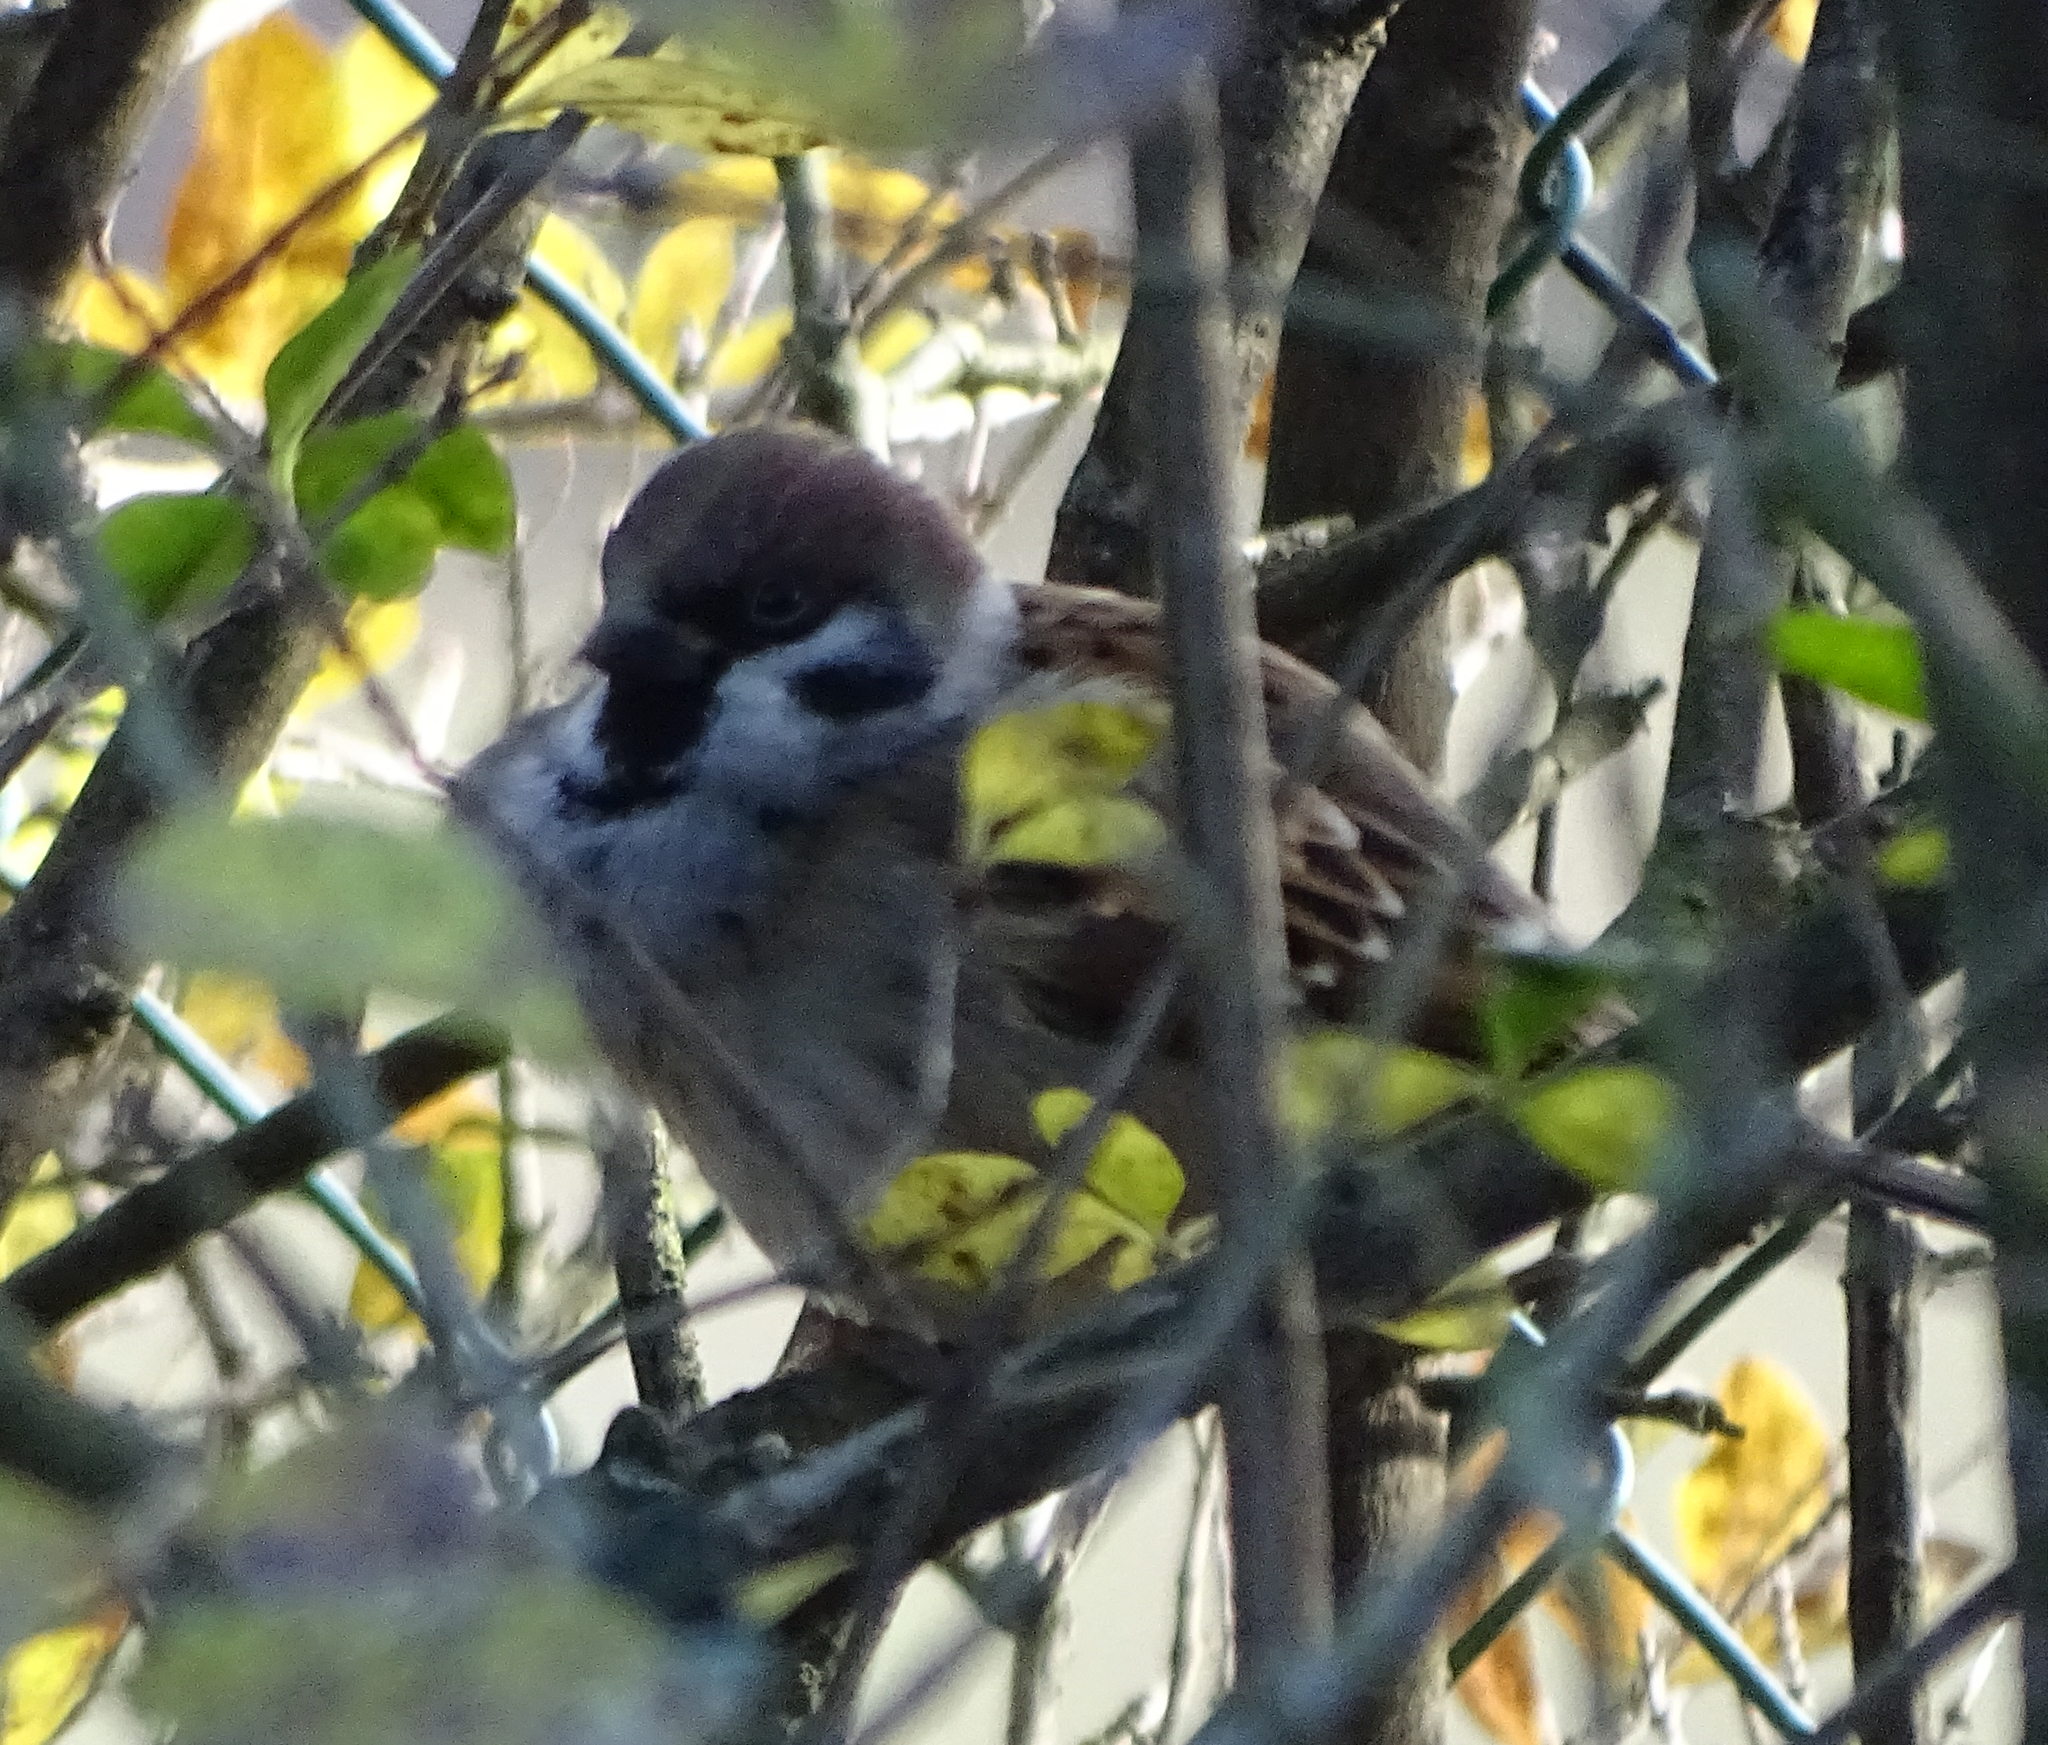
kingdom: Animalia
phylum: Chordata
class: Aves
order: Passeriformes
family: Passeridae
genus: Passer
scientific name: Passer montanus
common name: Eurasian tree sparrow
